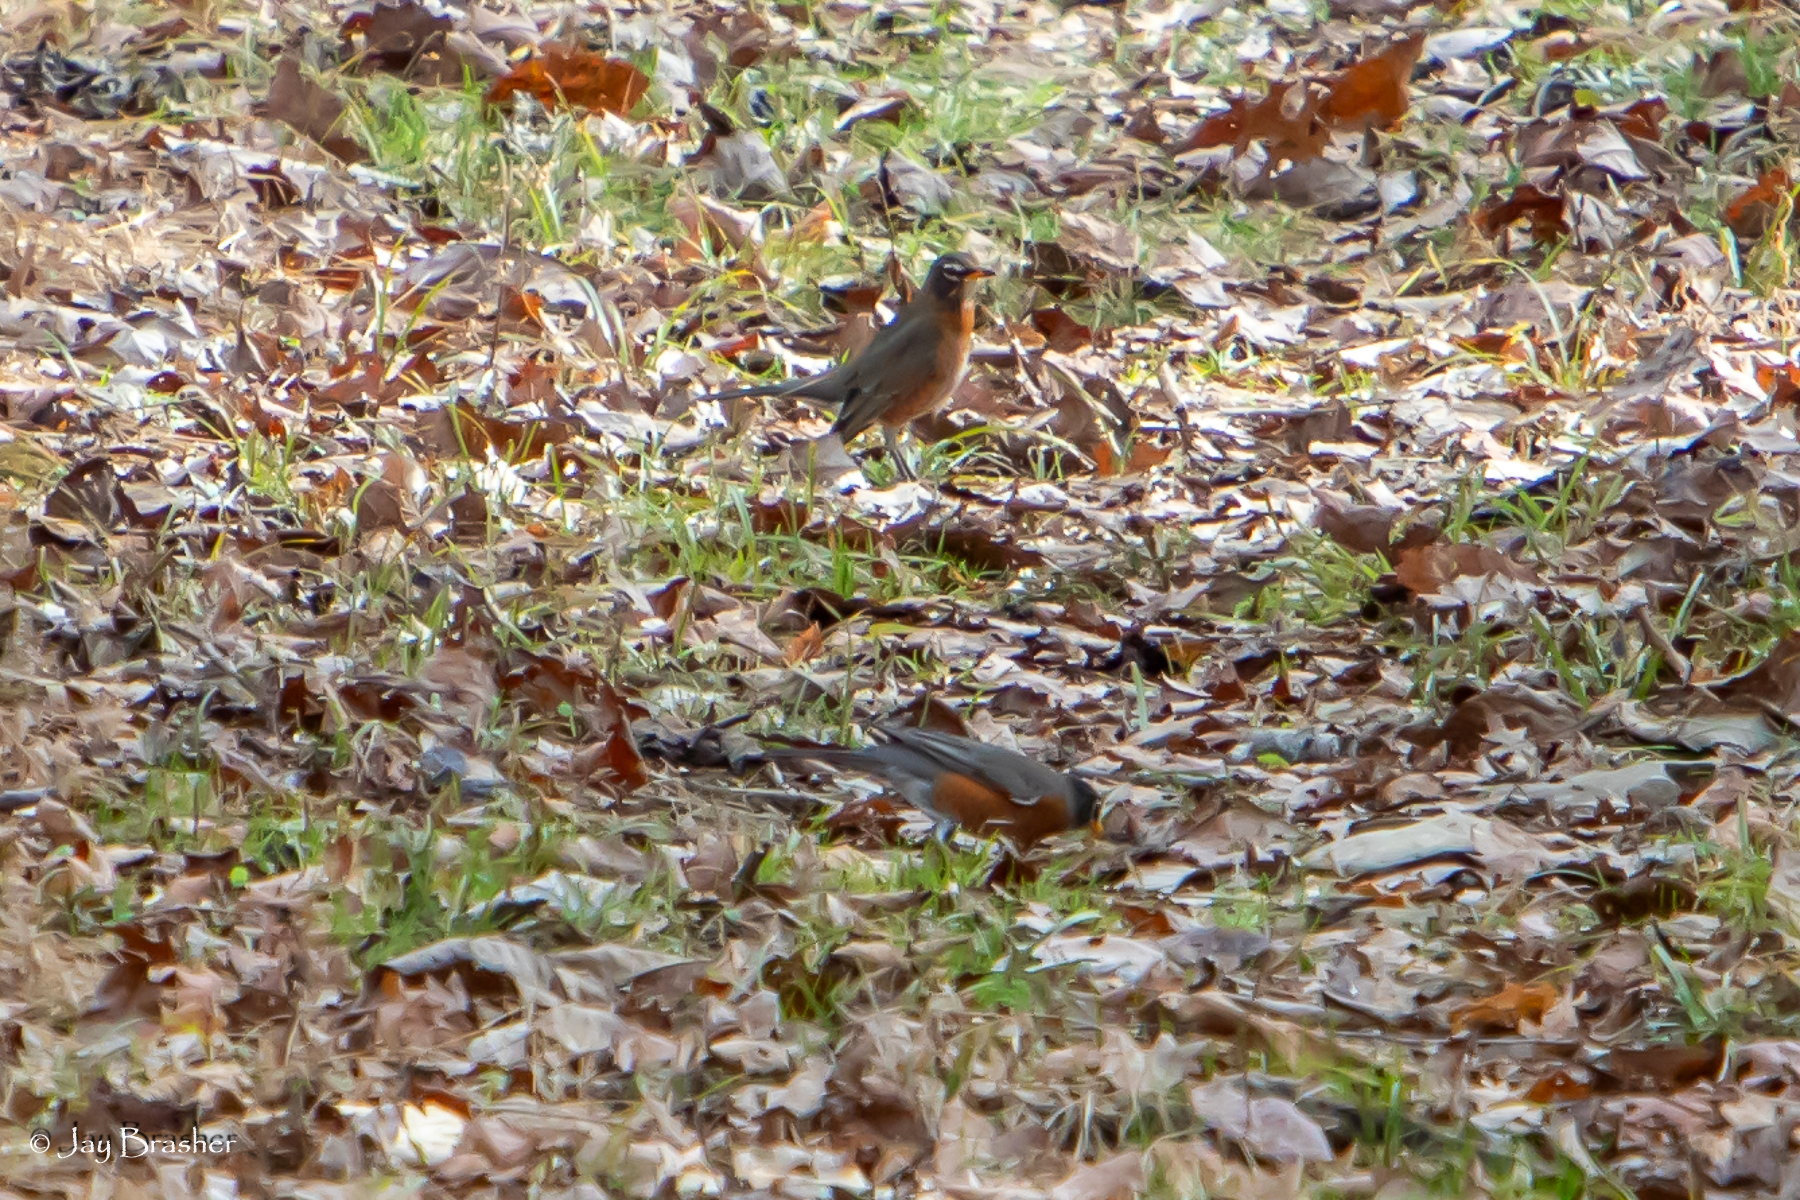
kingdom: Animalia
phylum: Chordata
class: Aves
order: Passeriformes
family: Turdidae
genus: Turdus
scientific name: Turdus migratorius
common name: American robin
